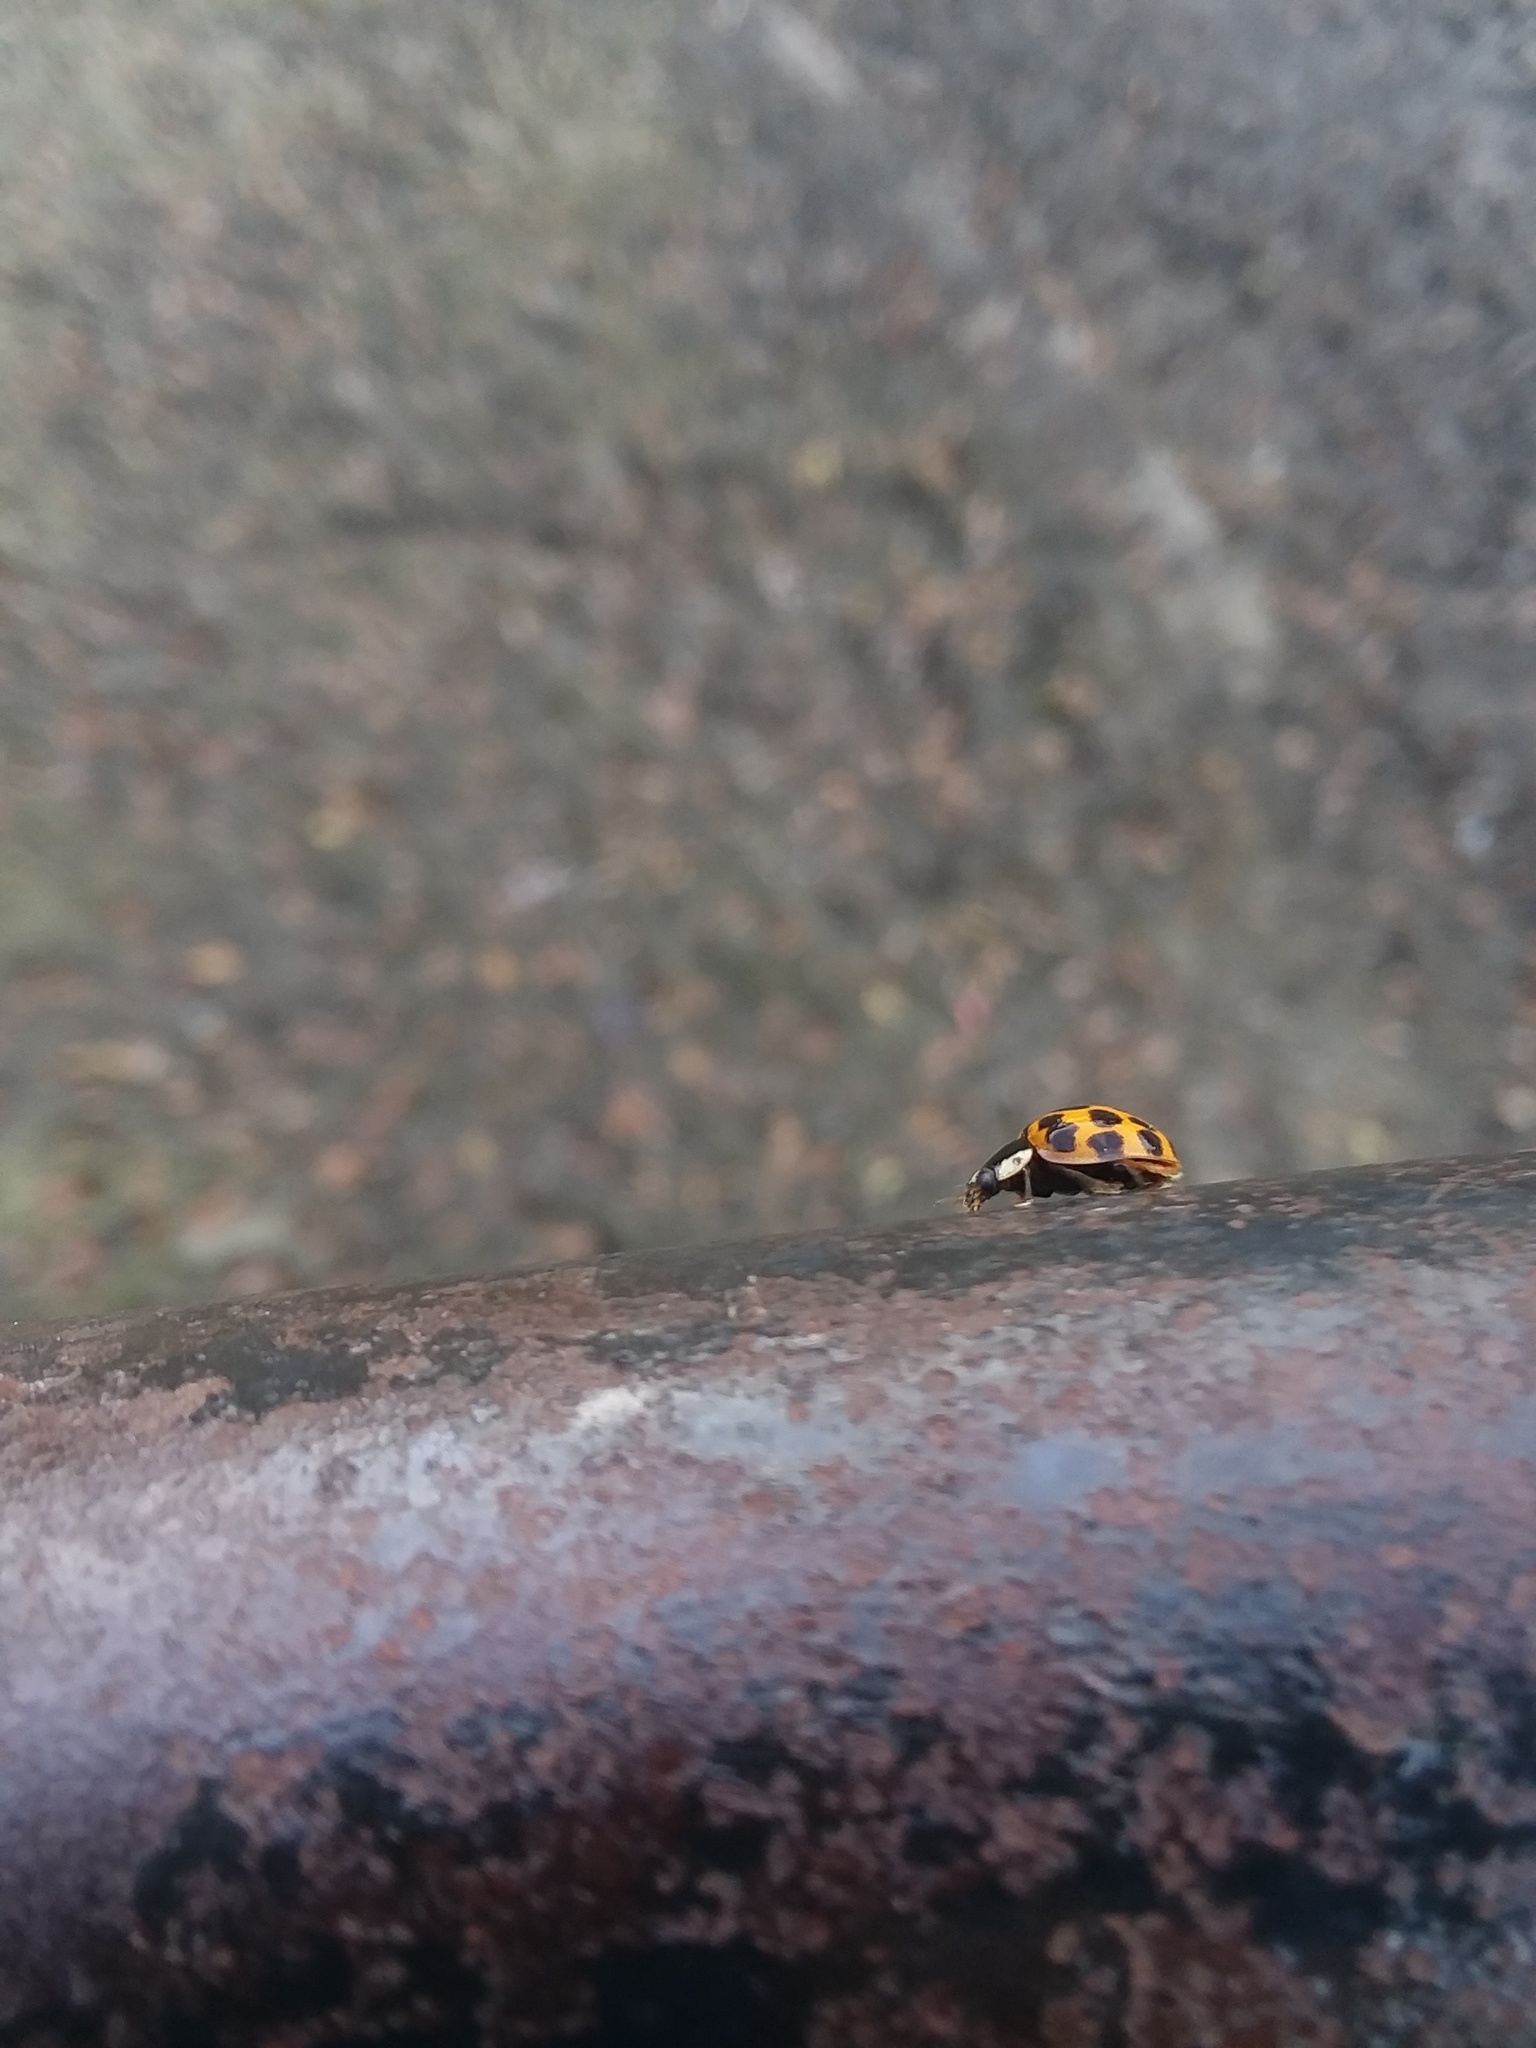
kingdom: Animalia
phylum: Arthropoda
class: Insecta
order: Coleoptera
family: Coccinellidae
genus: Harmonia
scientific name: Harmonia axyridis
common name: Harlequin ladybird
